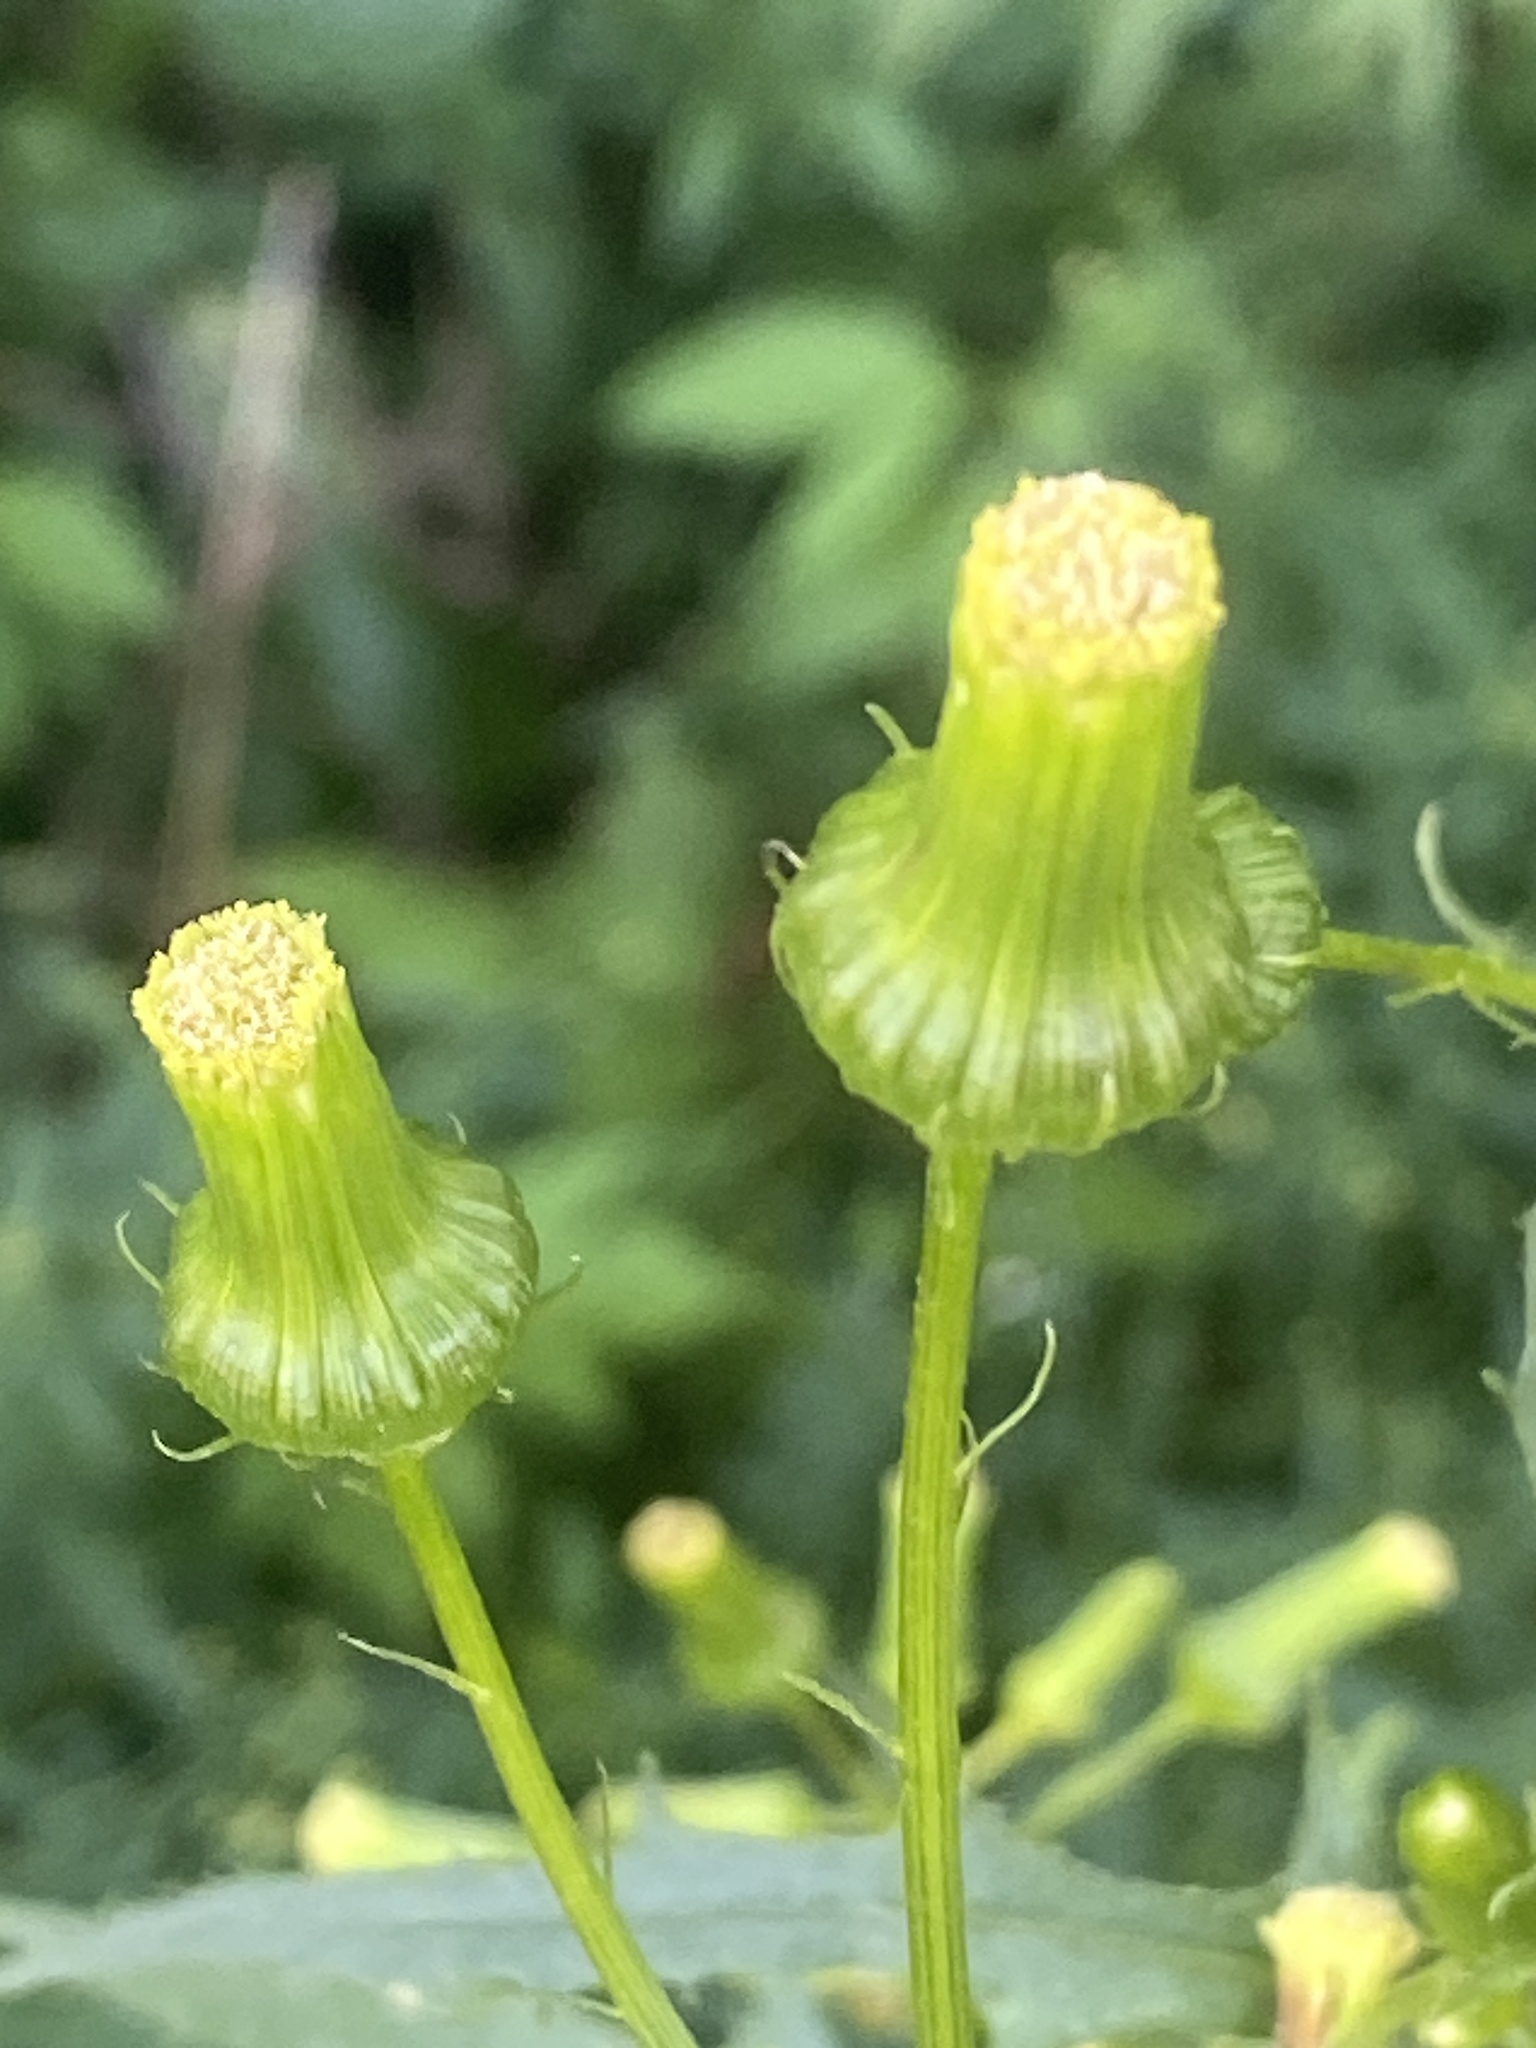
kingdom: Plantae
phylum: Tracheophyta
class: Magnoliopsida
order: Asterales
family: Asteraceae
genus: Erechtites
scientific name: Erechtites hieraciifolius
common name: American burnweed
